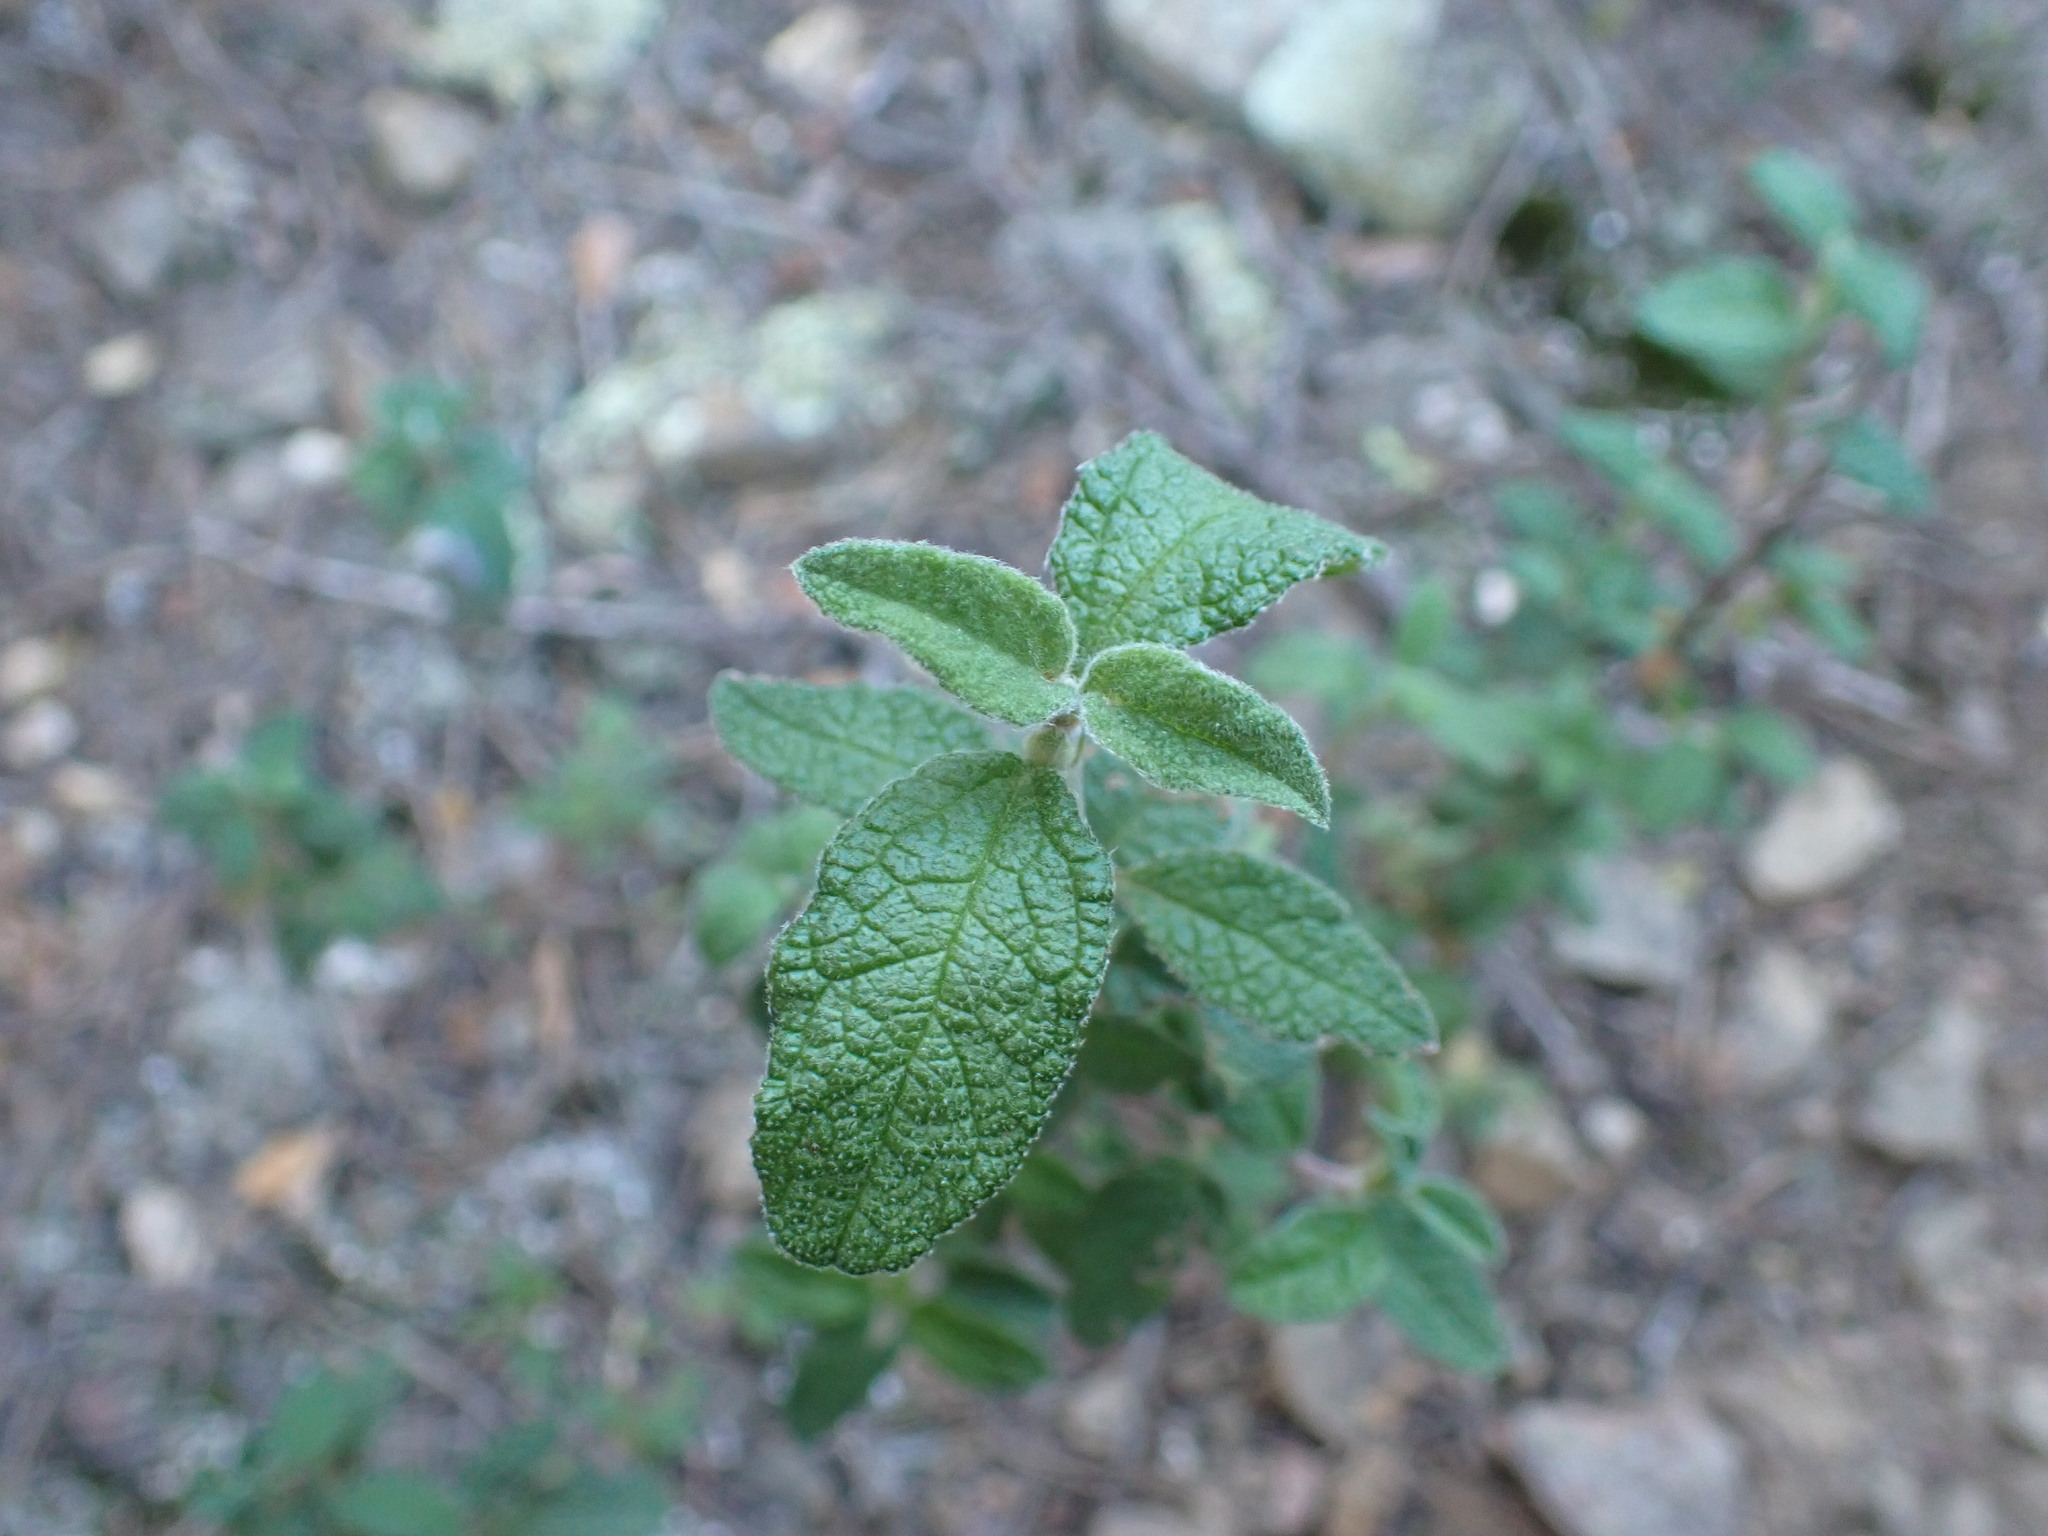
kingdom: Plantae
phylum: Tracheophyta
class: Magnoliopsida
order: Malvales
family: Cistaceae
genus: Cistus
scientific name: Cistus salviifolius
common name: Salvia cistus
